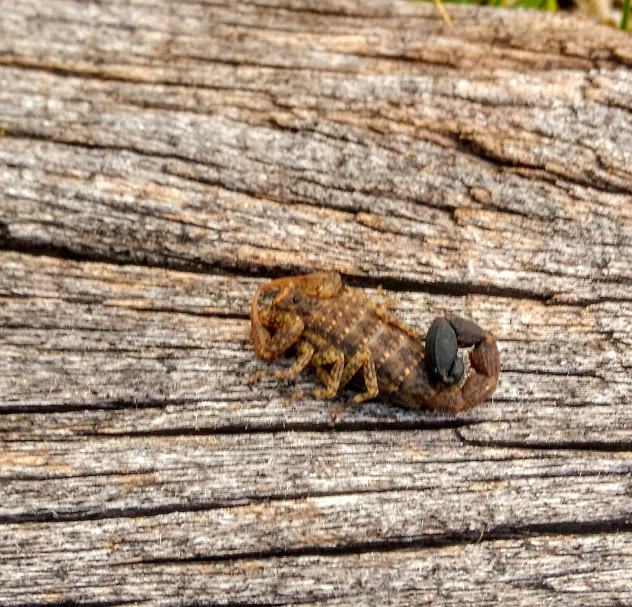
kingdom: Animalia
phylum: Arthropoda
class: Arachnida
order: Scorpiones
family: Buthidae
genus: Tityus
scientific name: Tityus columbianus
